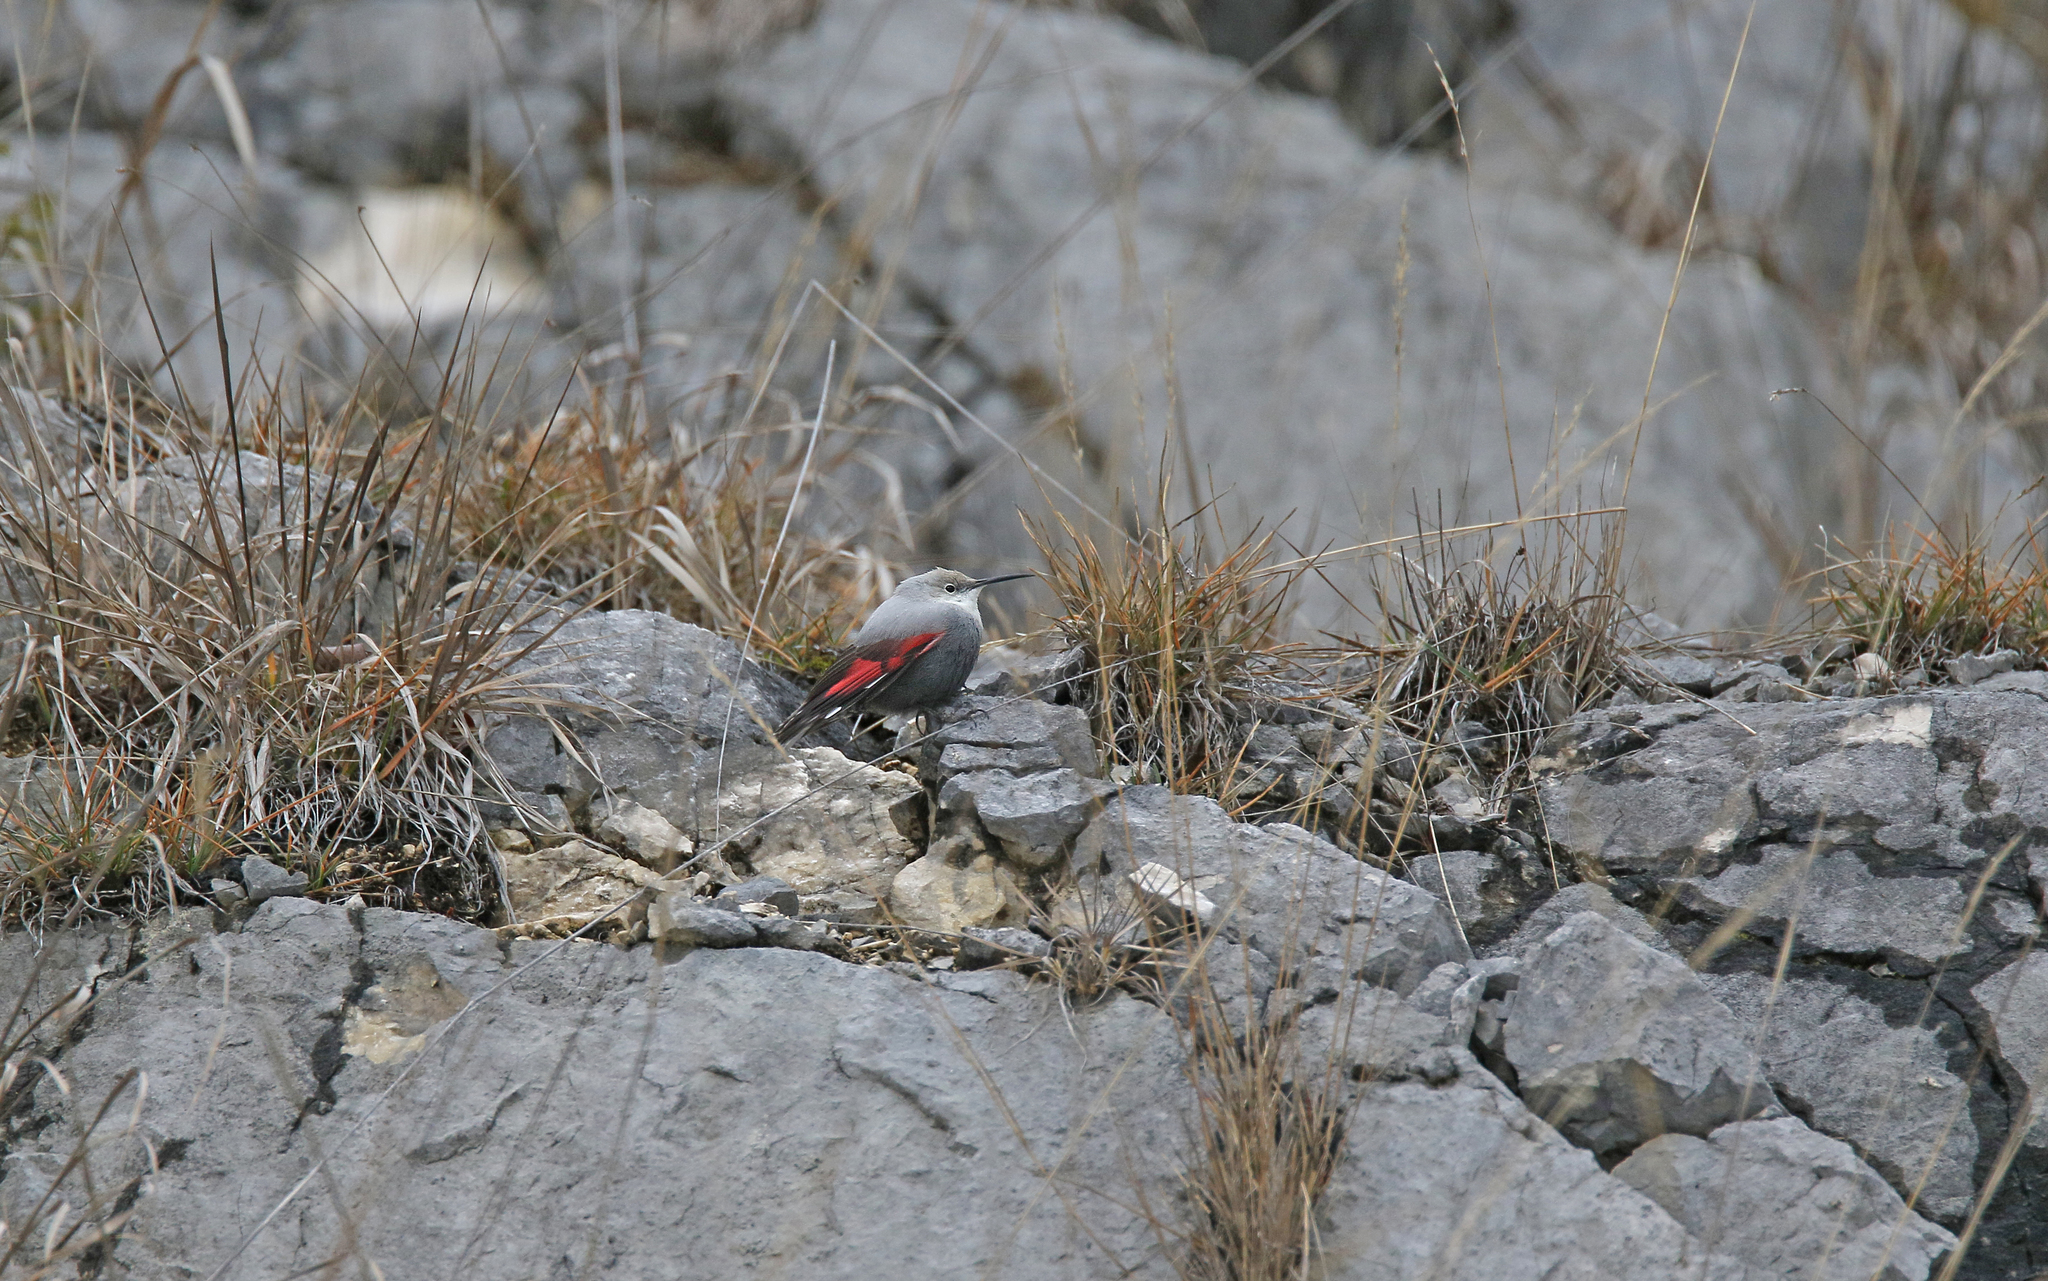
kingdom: Animalia
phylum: Chordata
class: Aves
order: Passeriformes
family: Tichodromidae
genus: Tichodroma
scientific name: Tichodroma muraria
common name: Wallcreeper
